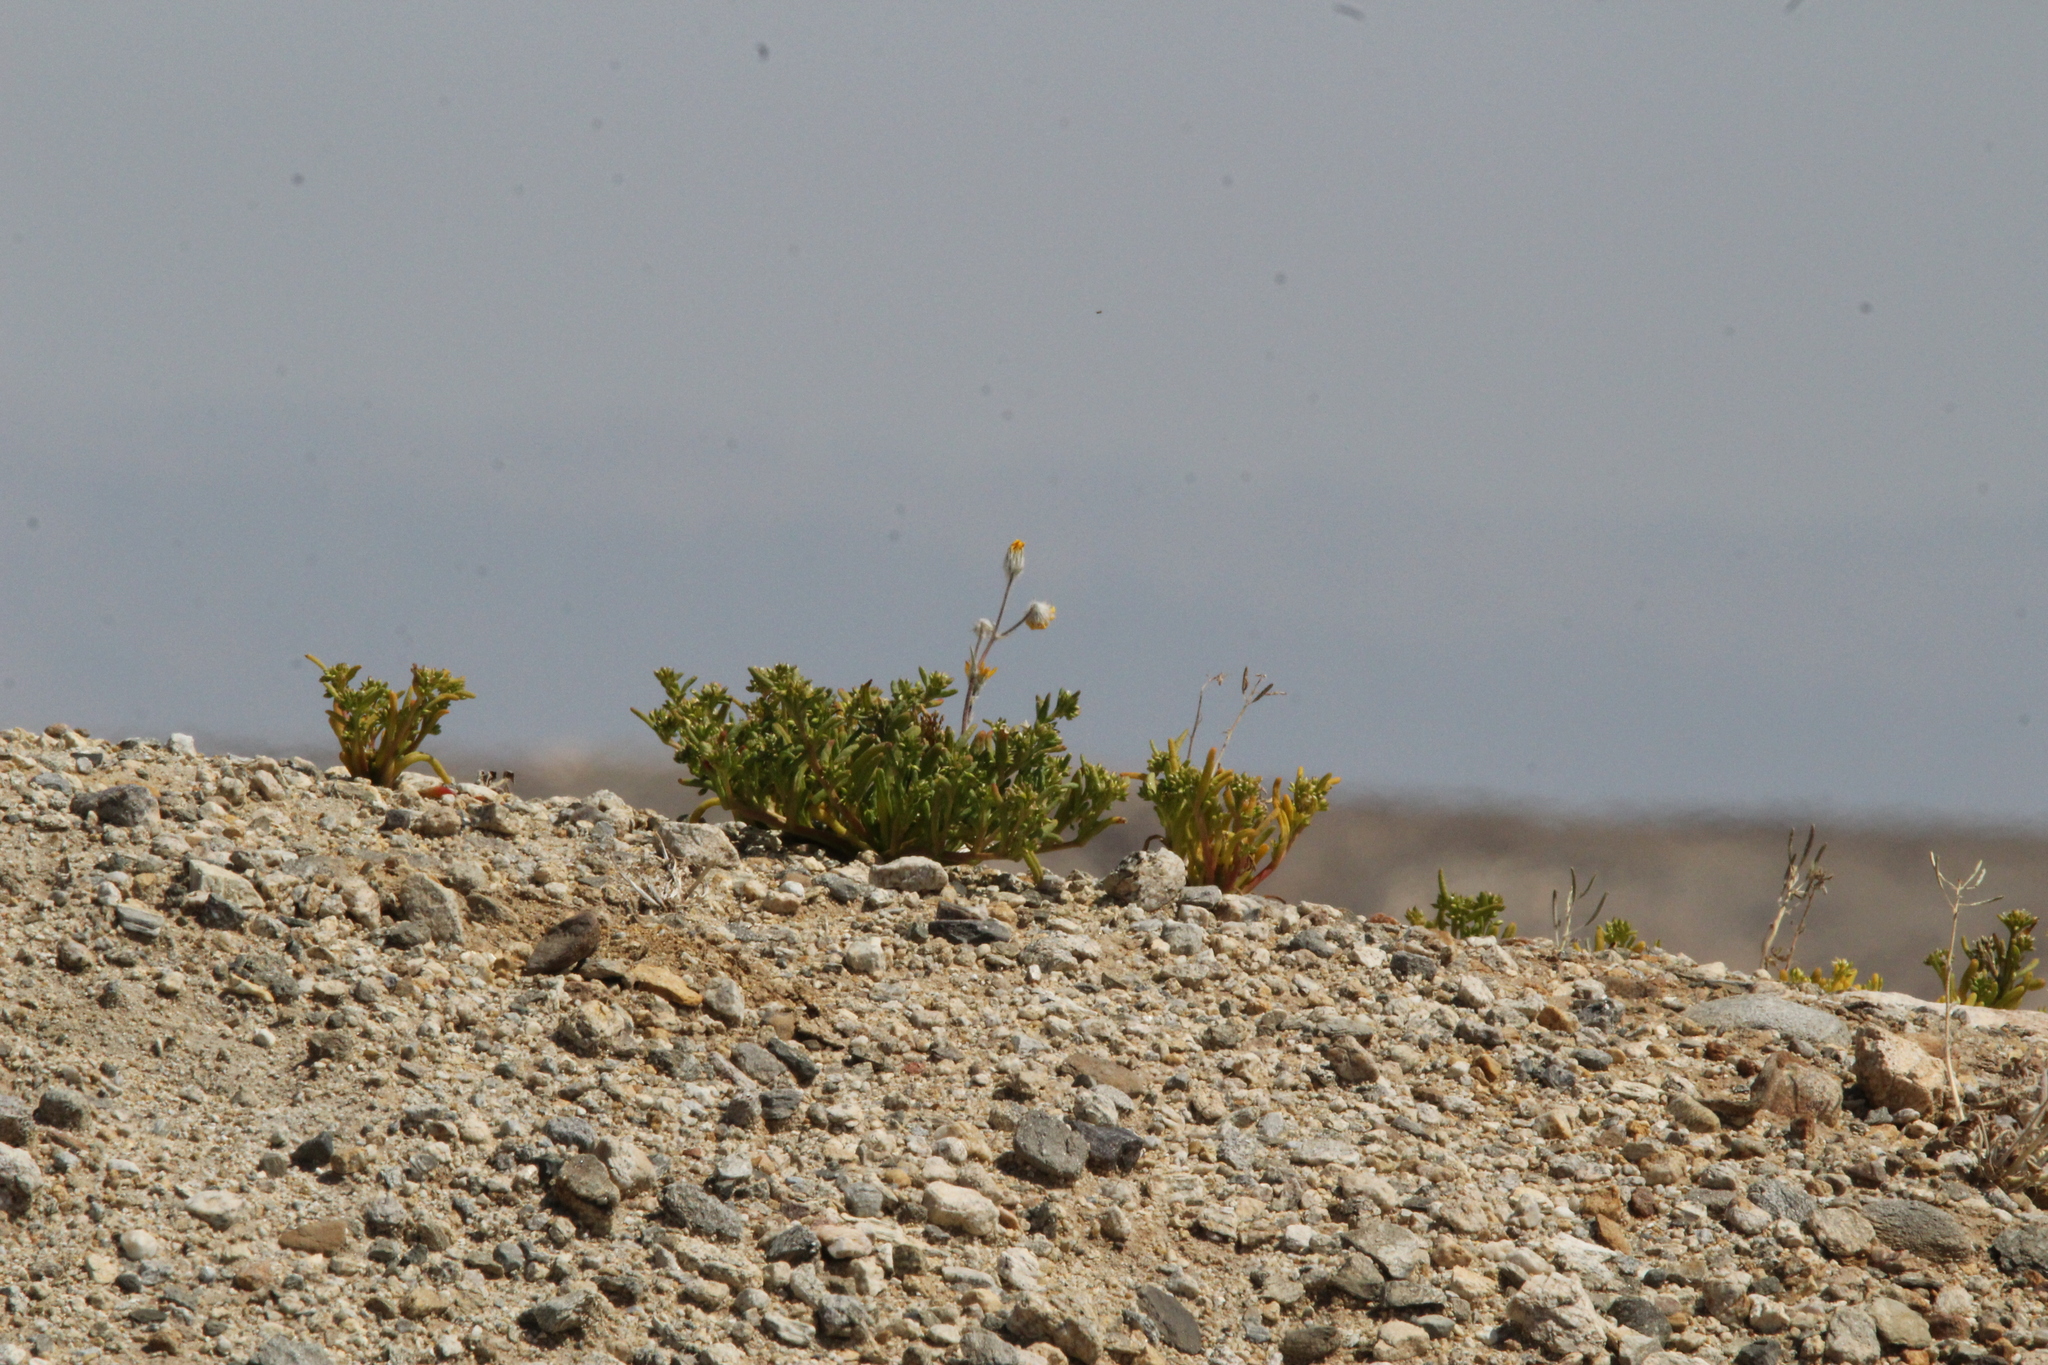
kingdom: Plantae
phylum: Tracheophyta
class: Magnoliopsida
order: Asterales
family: Asteraceae
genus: Geraea
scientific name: Geraea canescens
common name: Desert-gold
